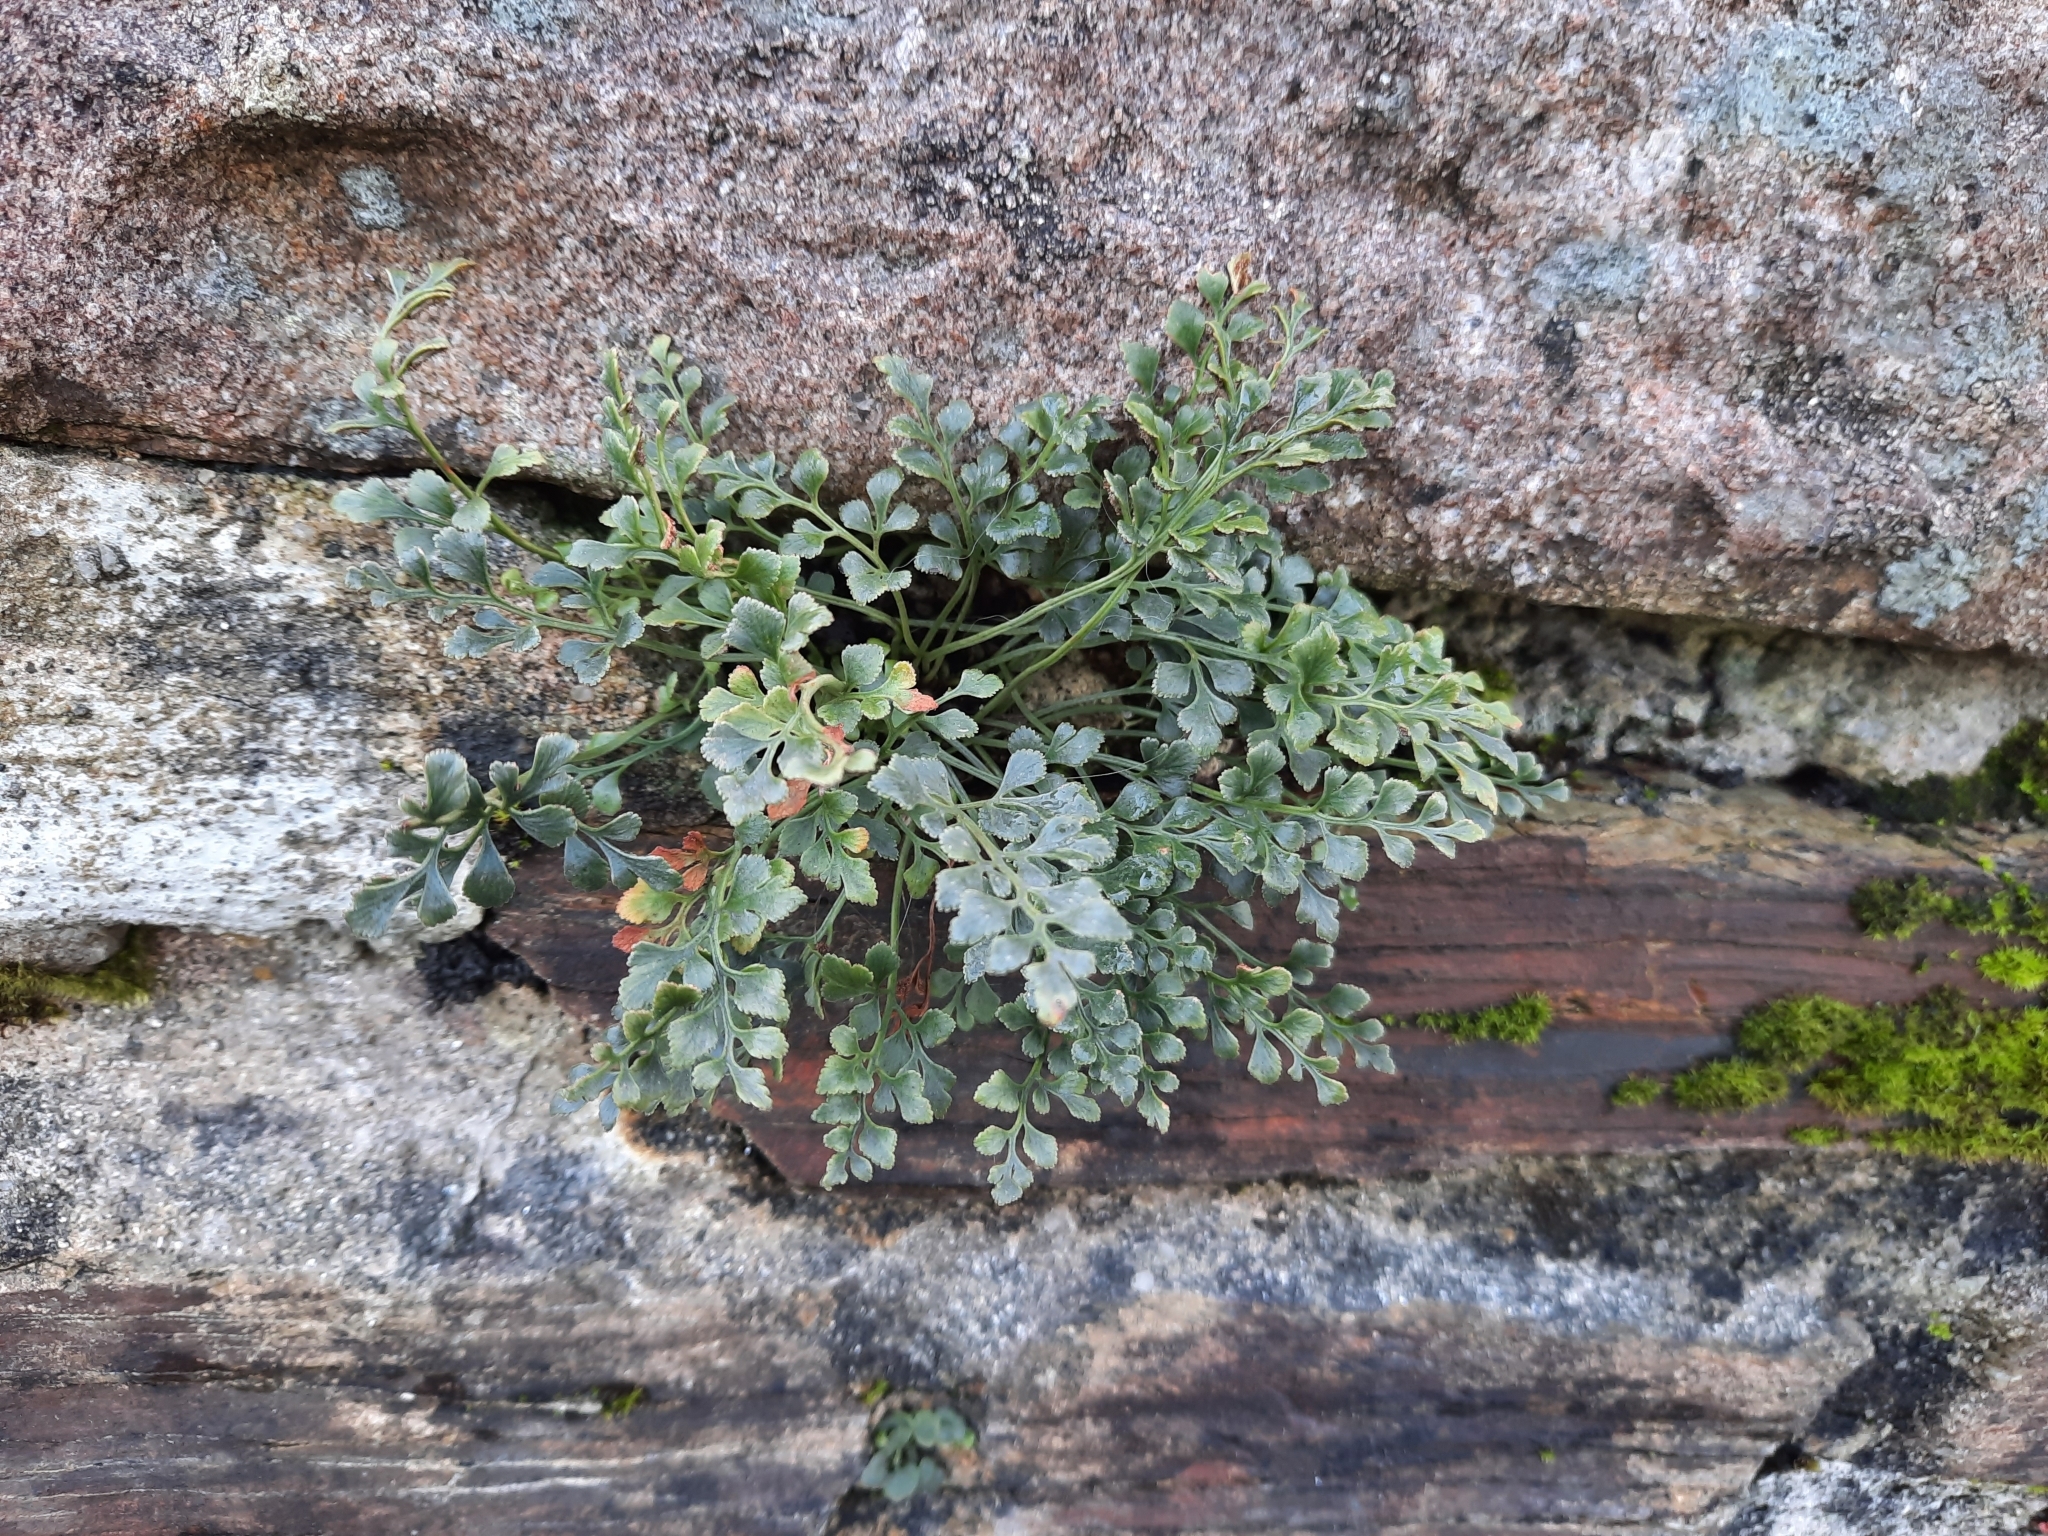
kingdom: Plantae
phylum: Tracheophyta
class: Polypodiopsida
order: Polypodiales
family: Aspleniaceae
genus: Asplenium
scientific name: Asplenium ruta-muraria
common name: Wall-rue
